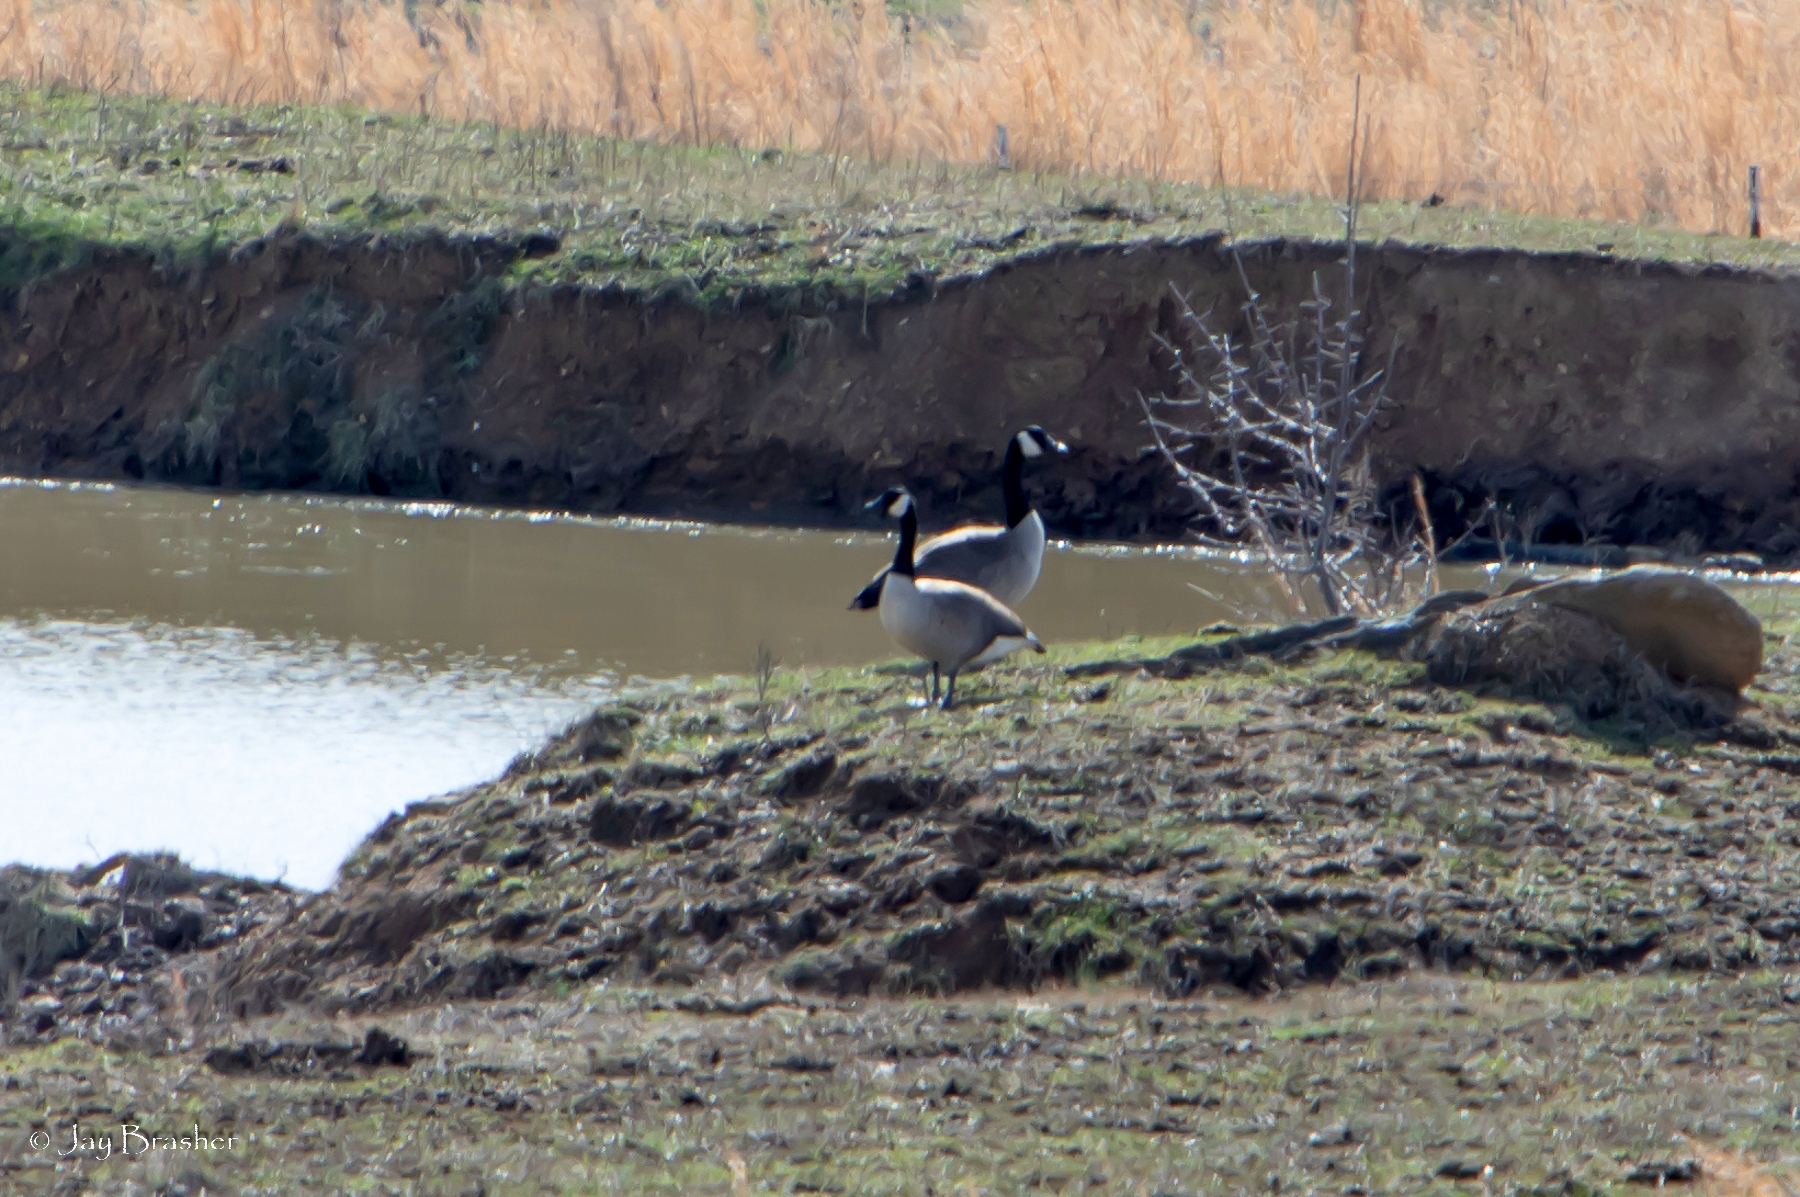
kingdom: Animalia
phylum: Chordata
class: Aves
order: Anseriformes
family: Anatidae
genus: Branta
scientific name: Branta canadensis
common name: Canada goose
